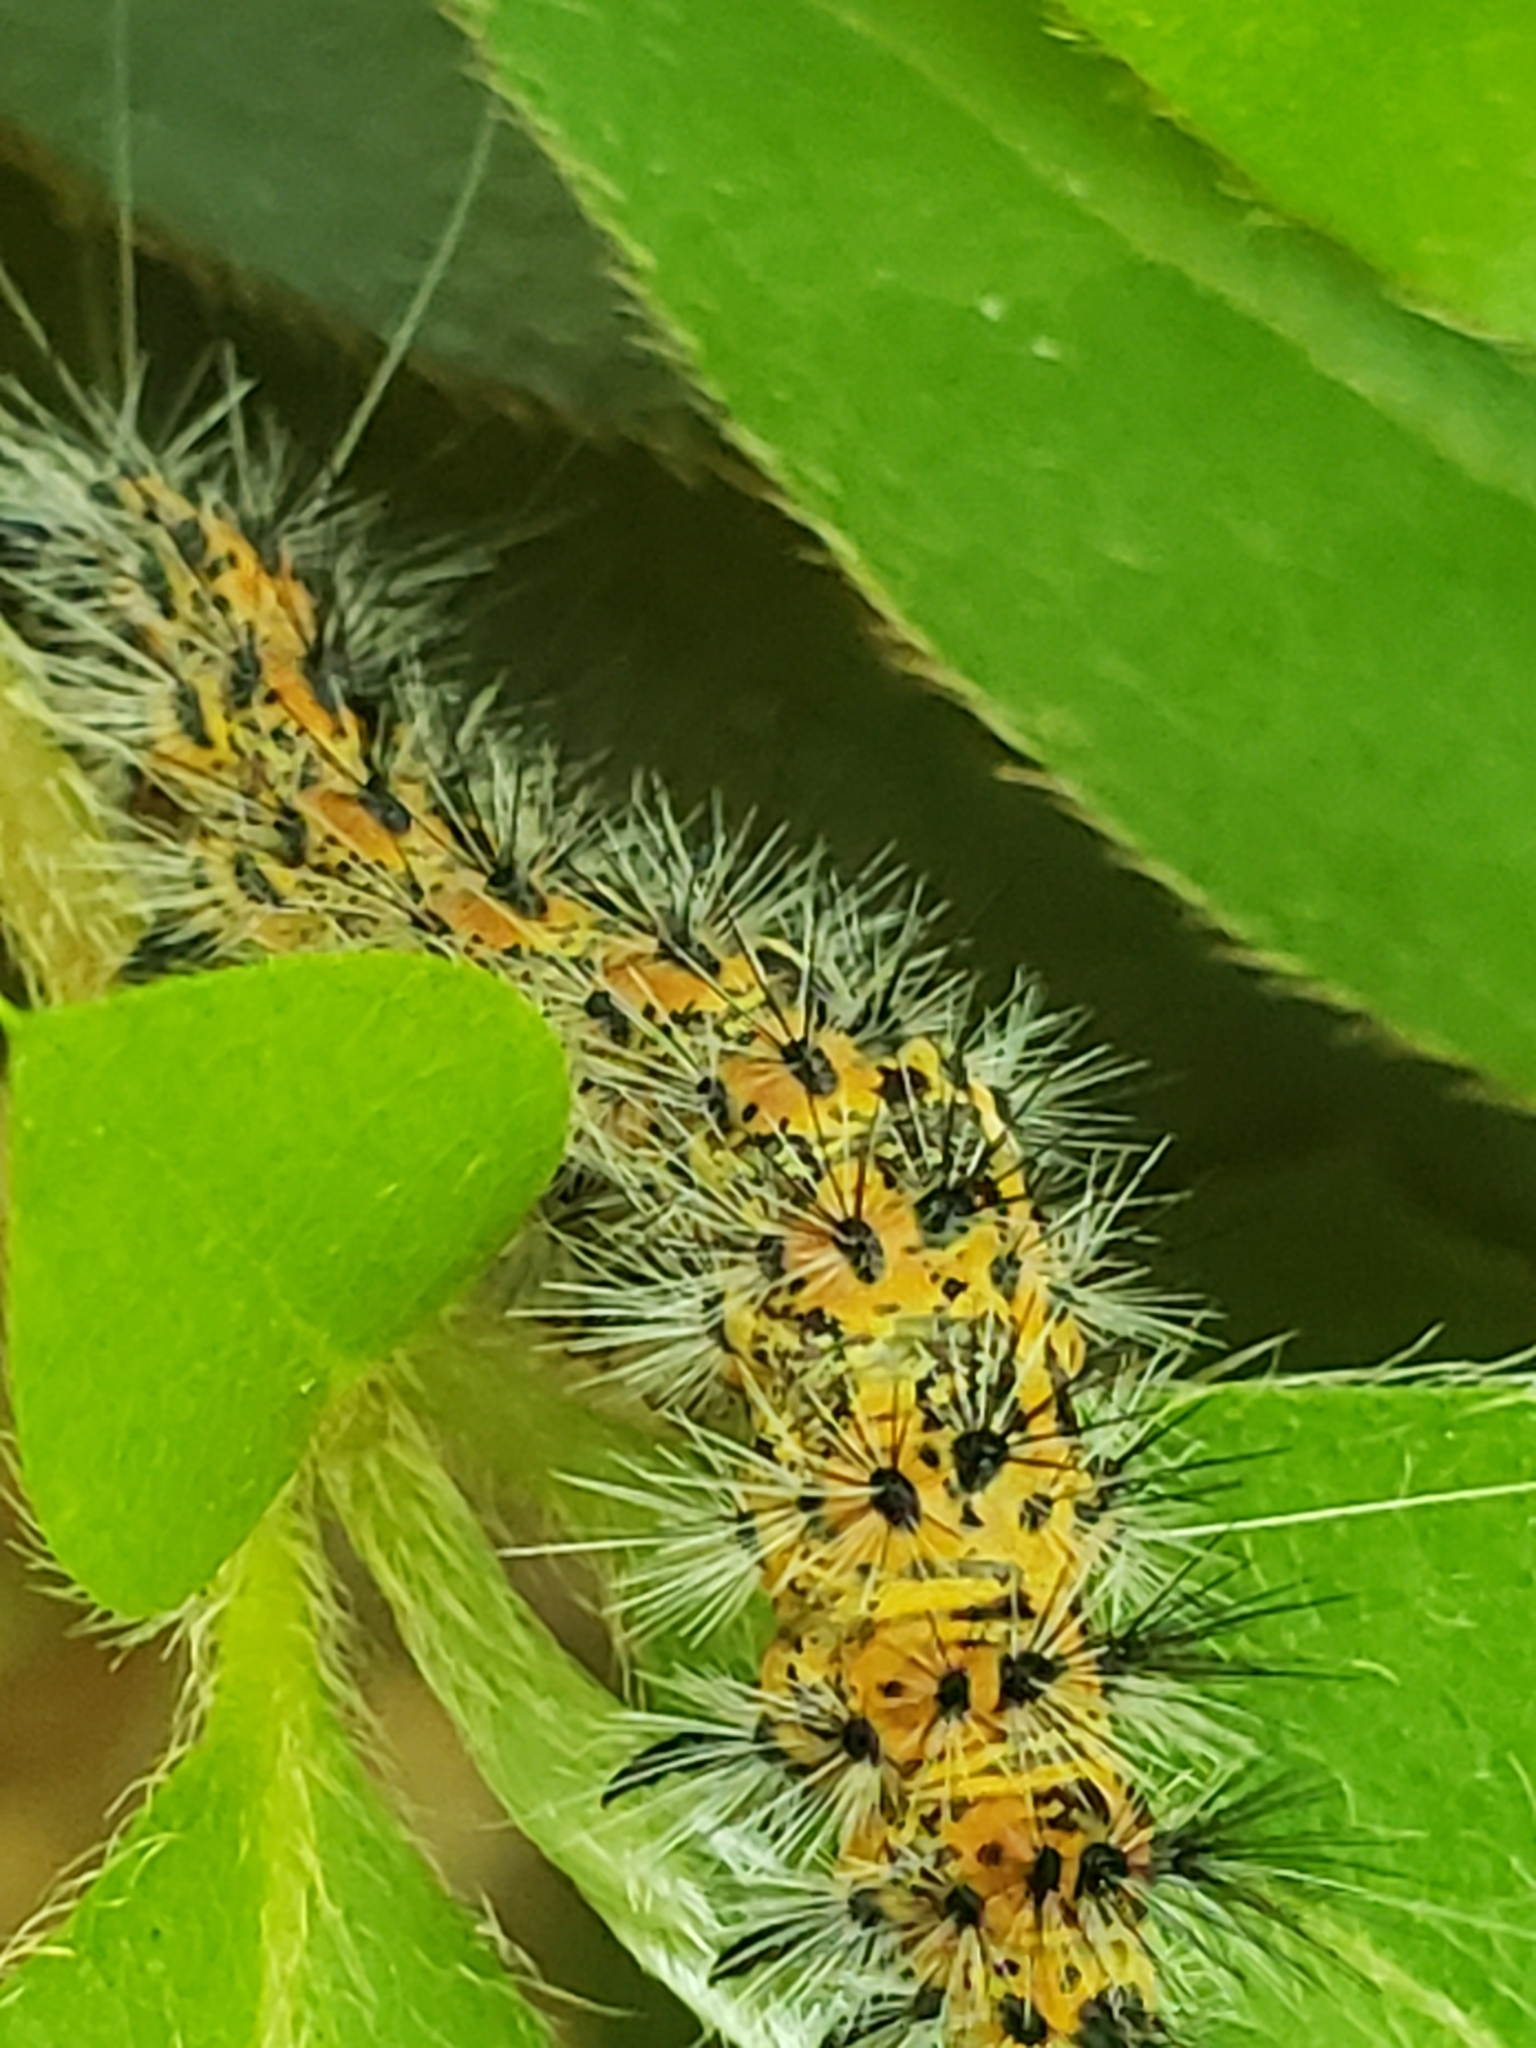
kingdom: Animalia
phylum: Arthropoda
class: Insecta
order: Lepidoptera
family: Erebidae
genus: Spilosoma
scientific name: Spilosoma dubia
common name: Dubious tiger moth
